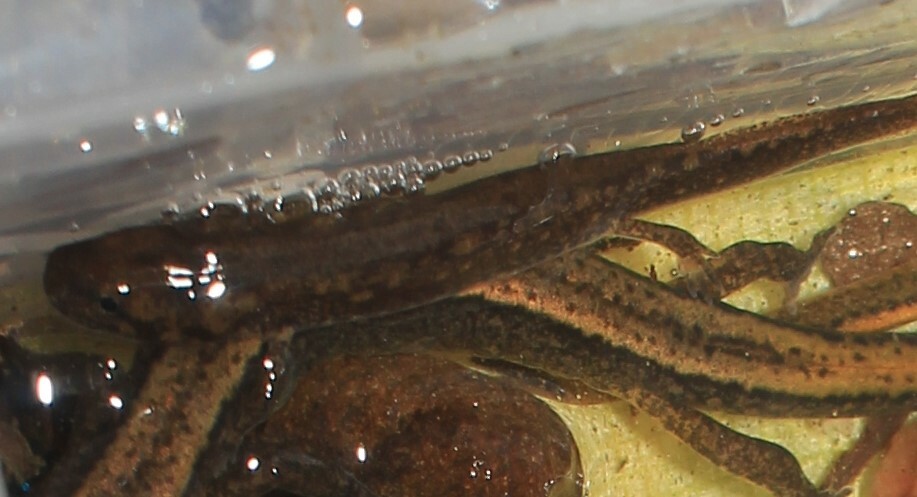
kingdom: Animalia
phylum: Chordata
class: Amphibia
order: Caudata
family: Plethodontidae
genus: Eurycea
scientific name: Eurycea bislineata
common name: Northern two-lined salamander
